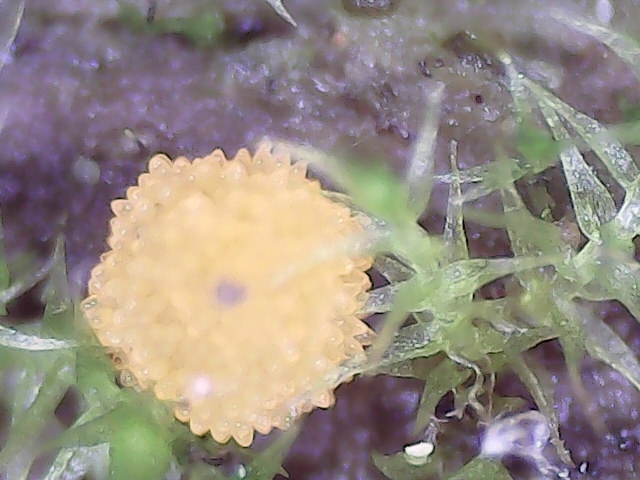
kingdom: Fungi
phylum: Ascomycota
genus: Bactridium
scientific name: Bactridium flavum
